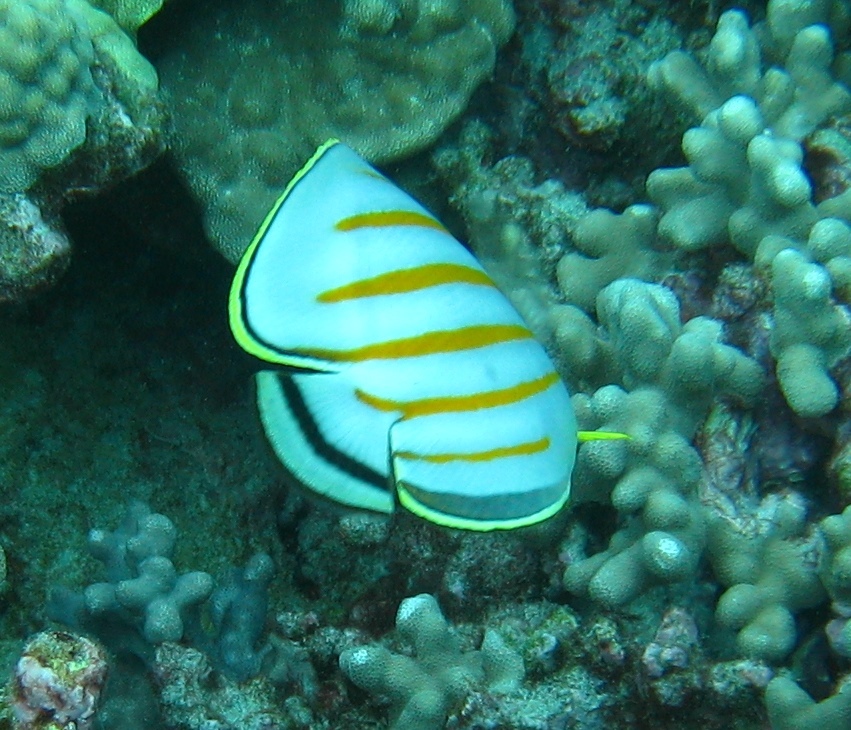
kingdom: Animalia
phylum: Chordata
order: Perciformes
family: Chaetodontidae
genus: Chaetodon
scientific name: Chaetodon ornatissimus
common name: Ornate butterflyfish
